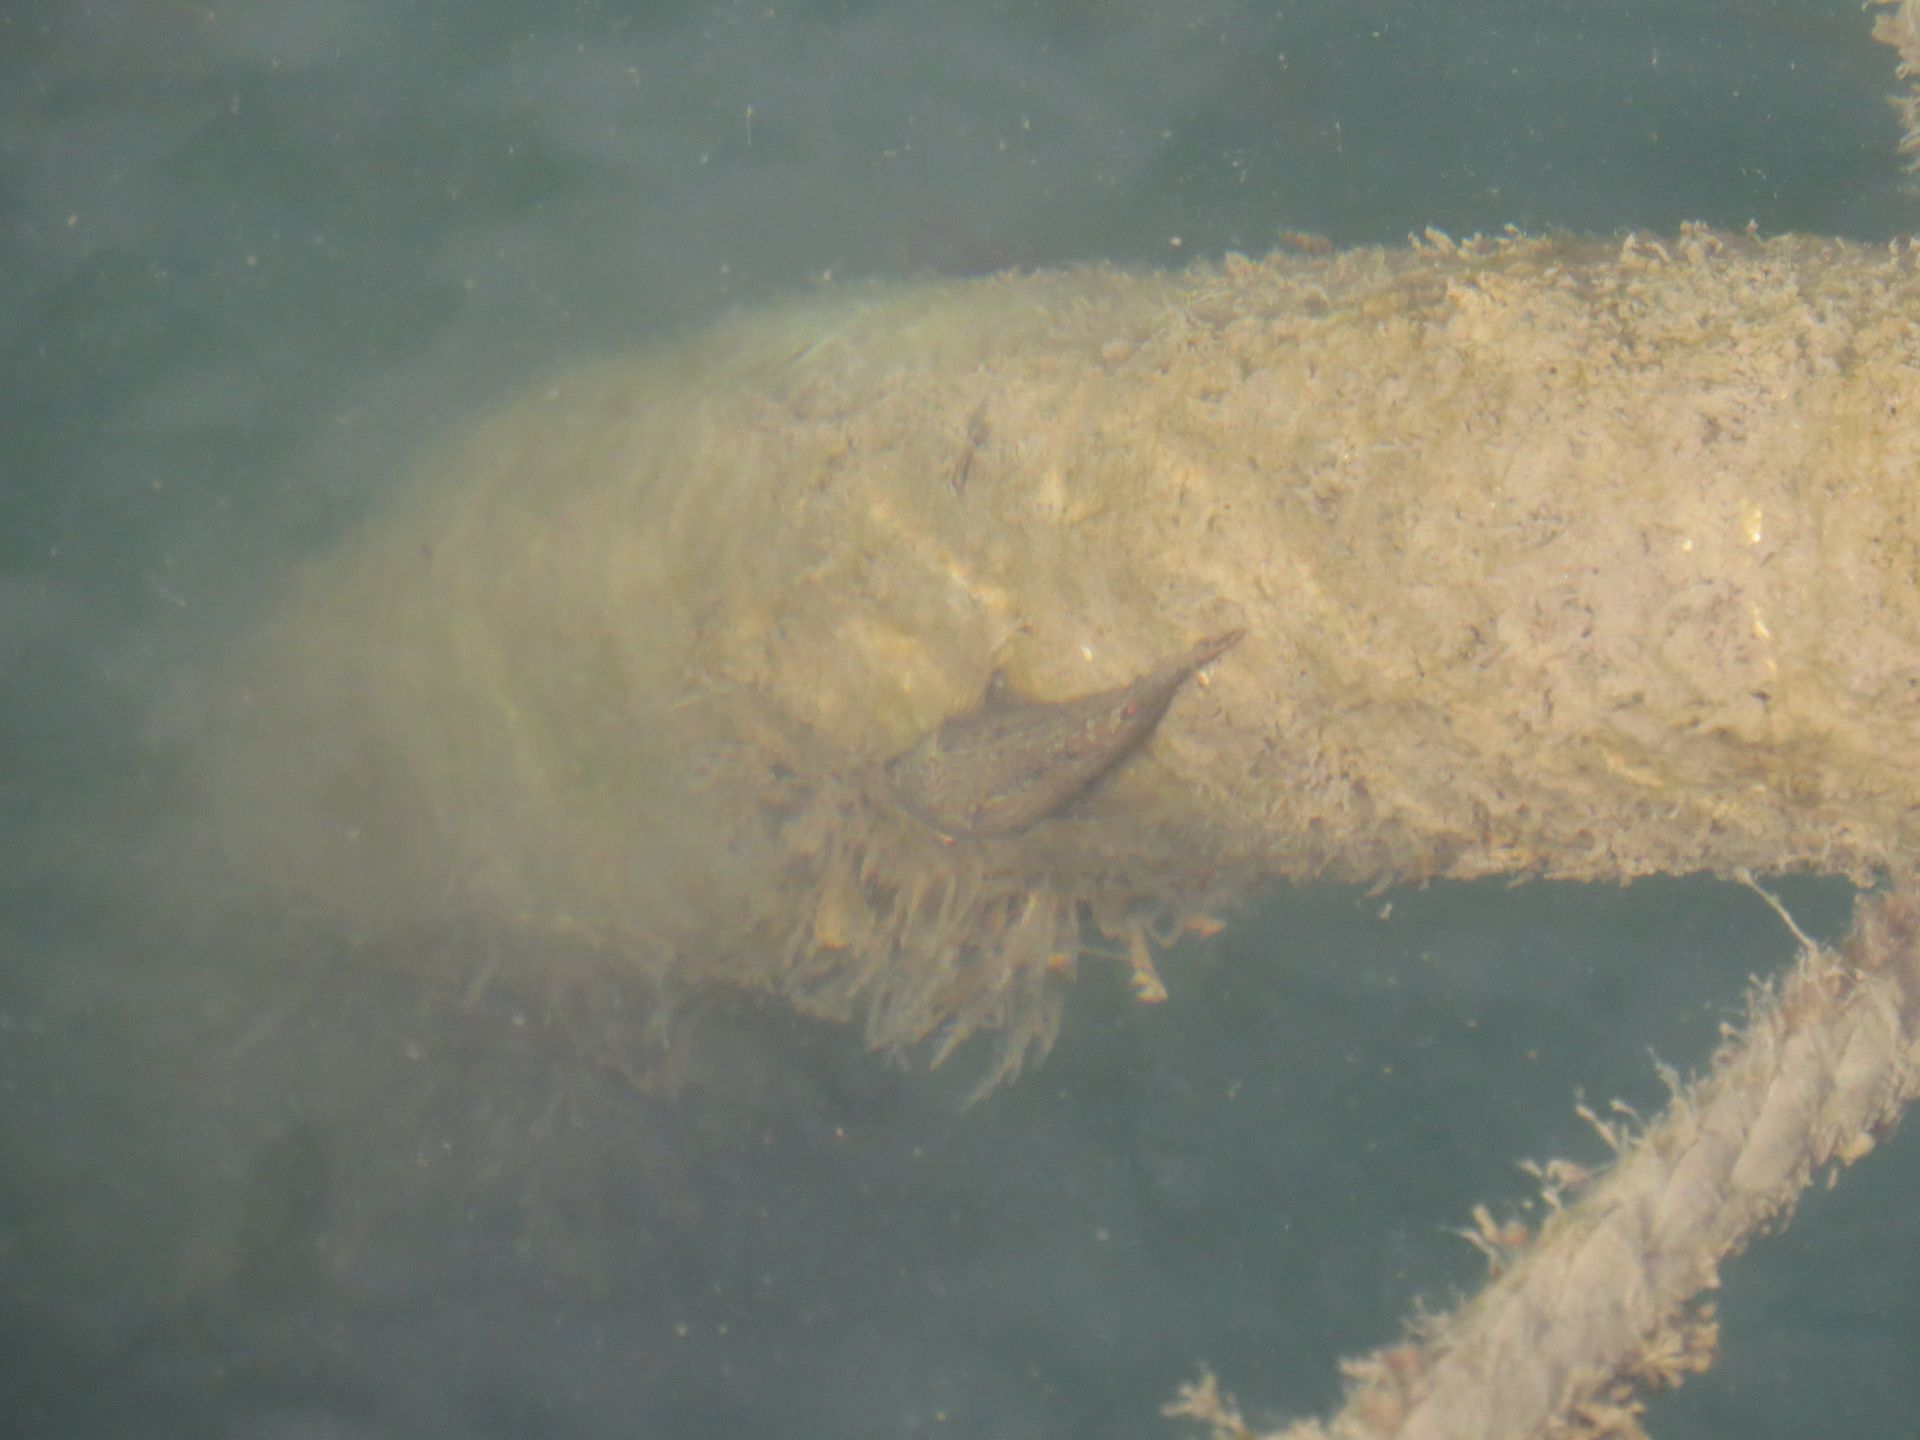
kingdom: Animalia
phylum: Chordata
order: Perciformes
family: Eleotridae
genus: Butis
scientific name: Butis butis
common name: Duckbill sleeper
